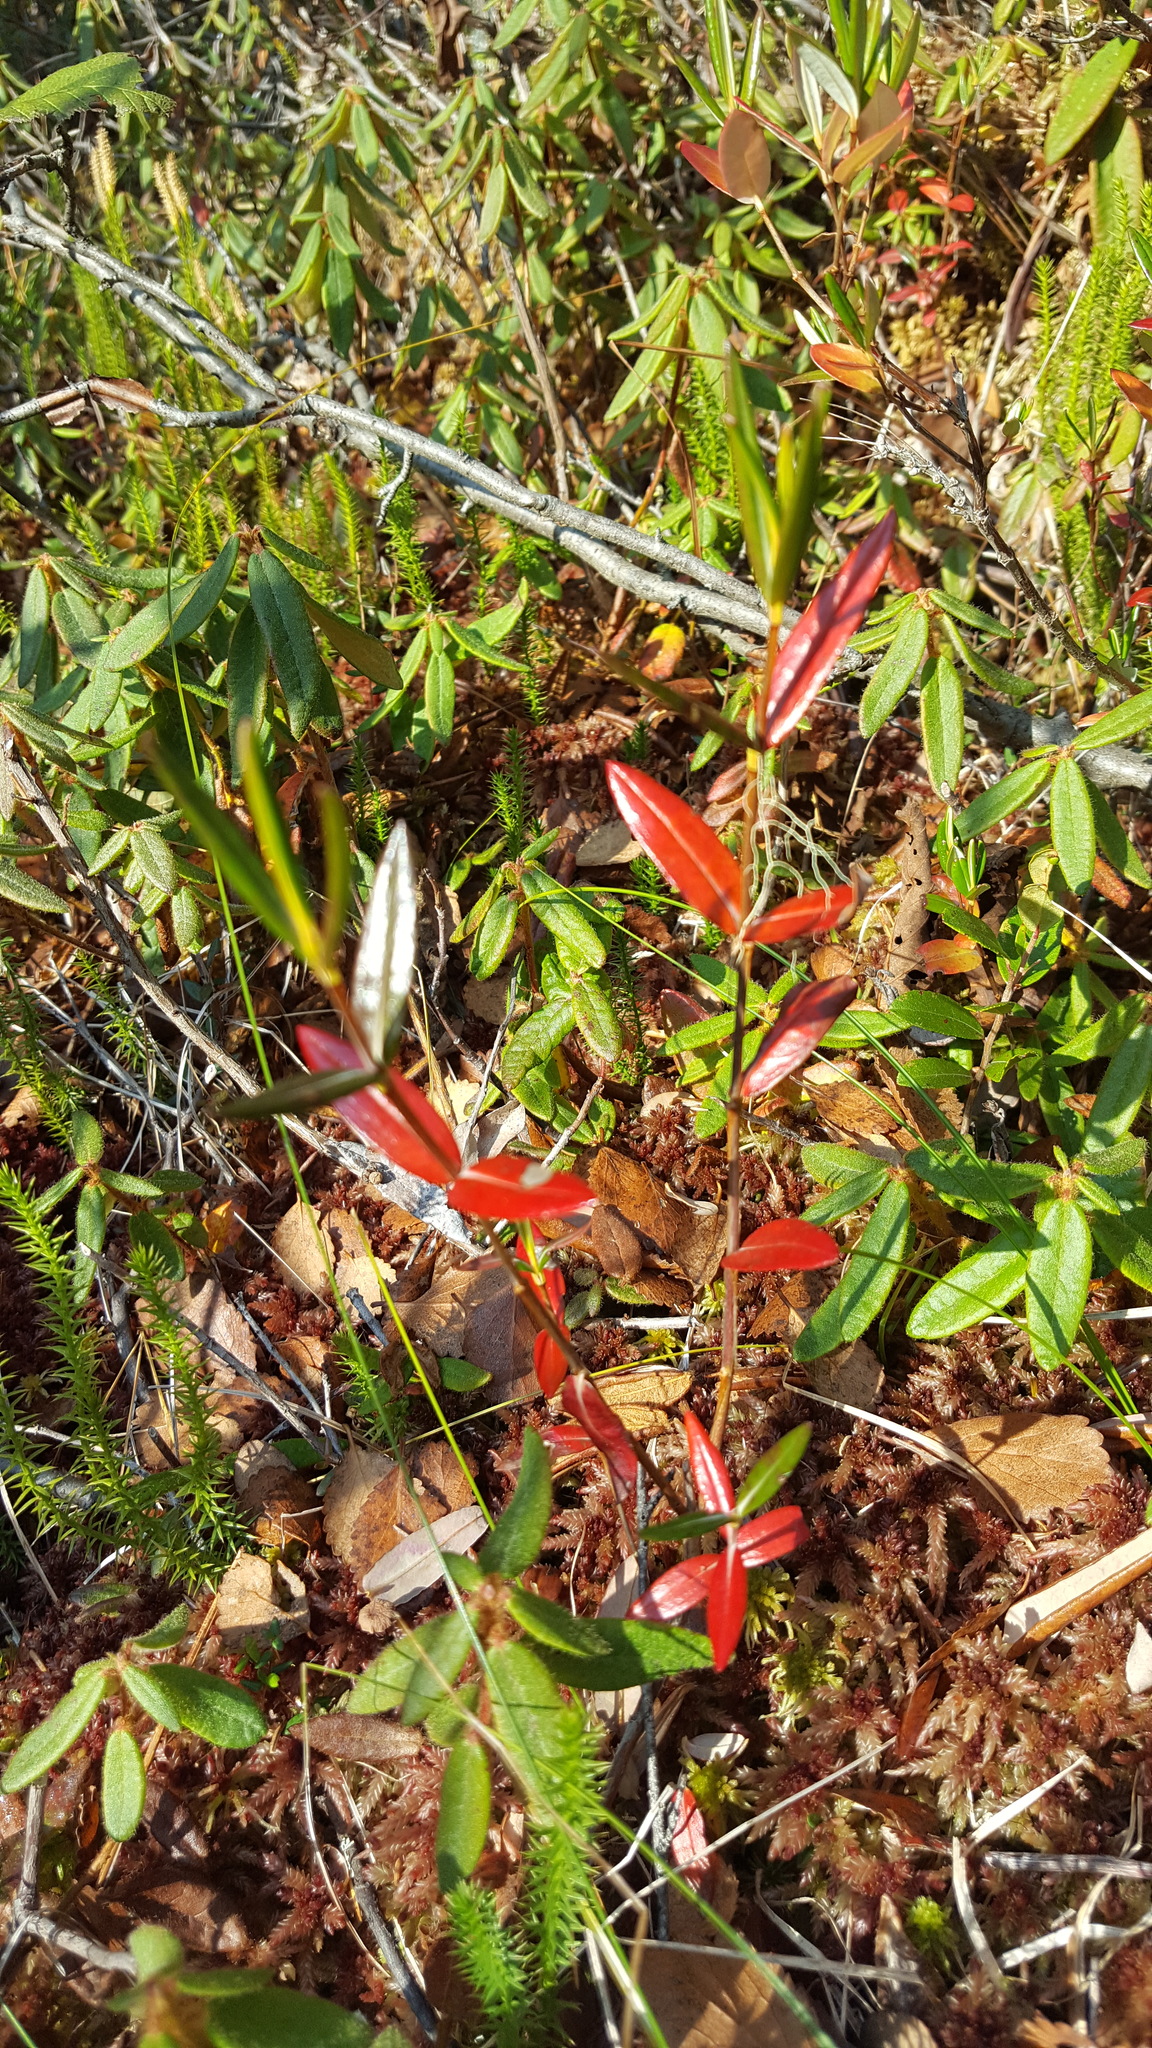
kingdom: Plantae
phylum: Tracheophyta
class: Magnoliopsida
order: Ericales
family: Ericaceae
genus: Kalmia
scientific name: Kalmia polifolia
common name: Bog-laurel
